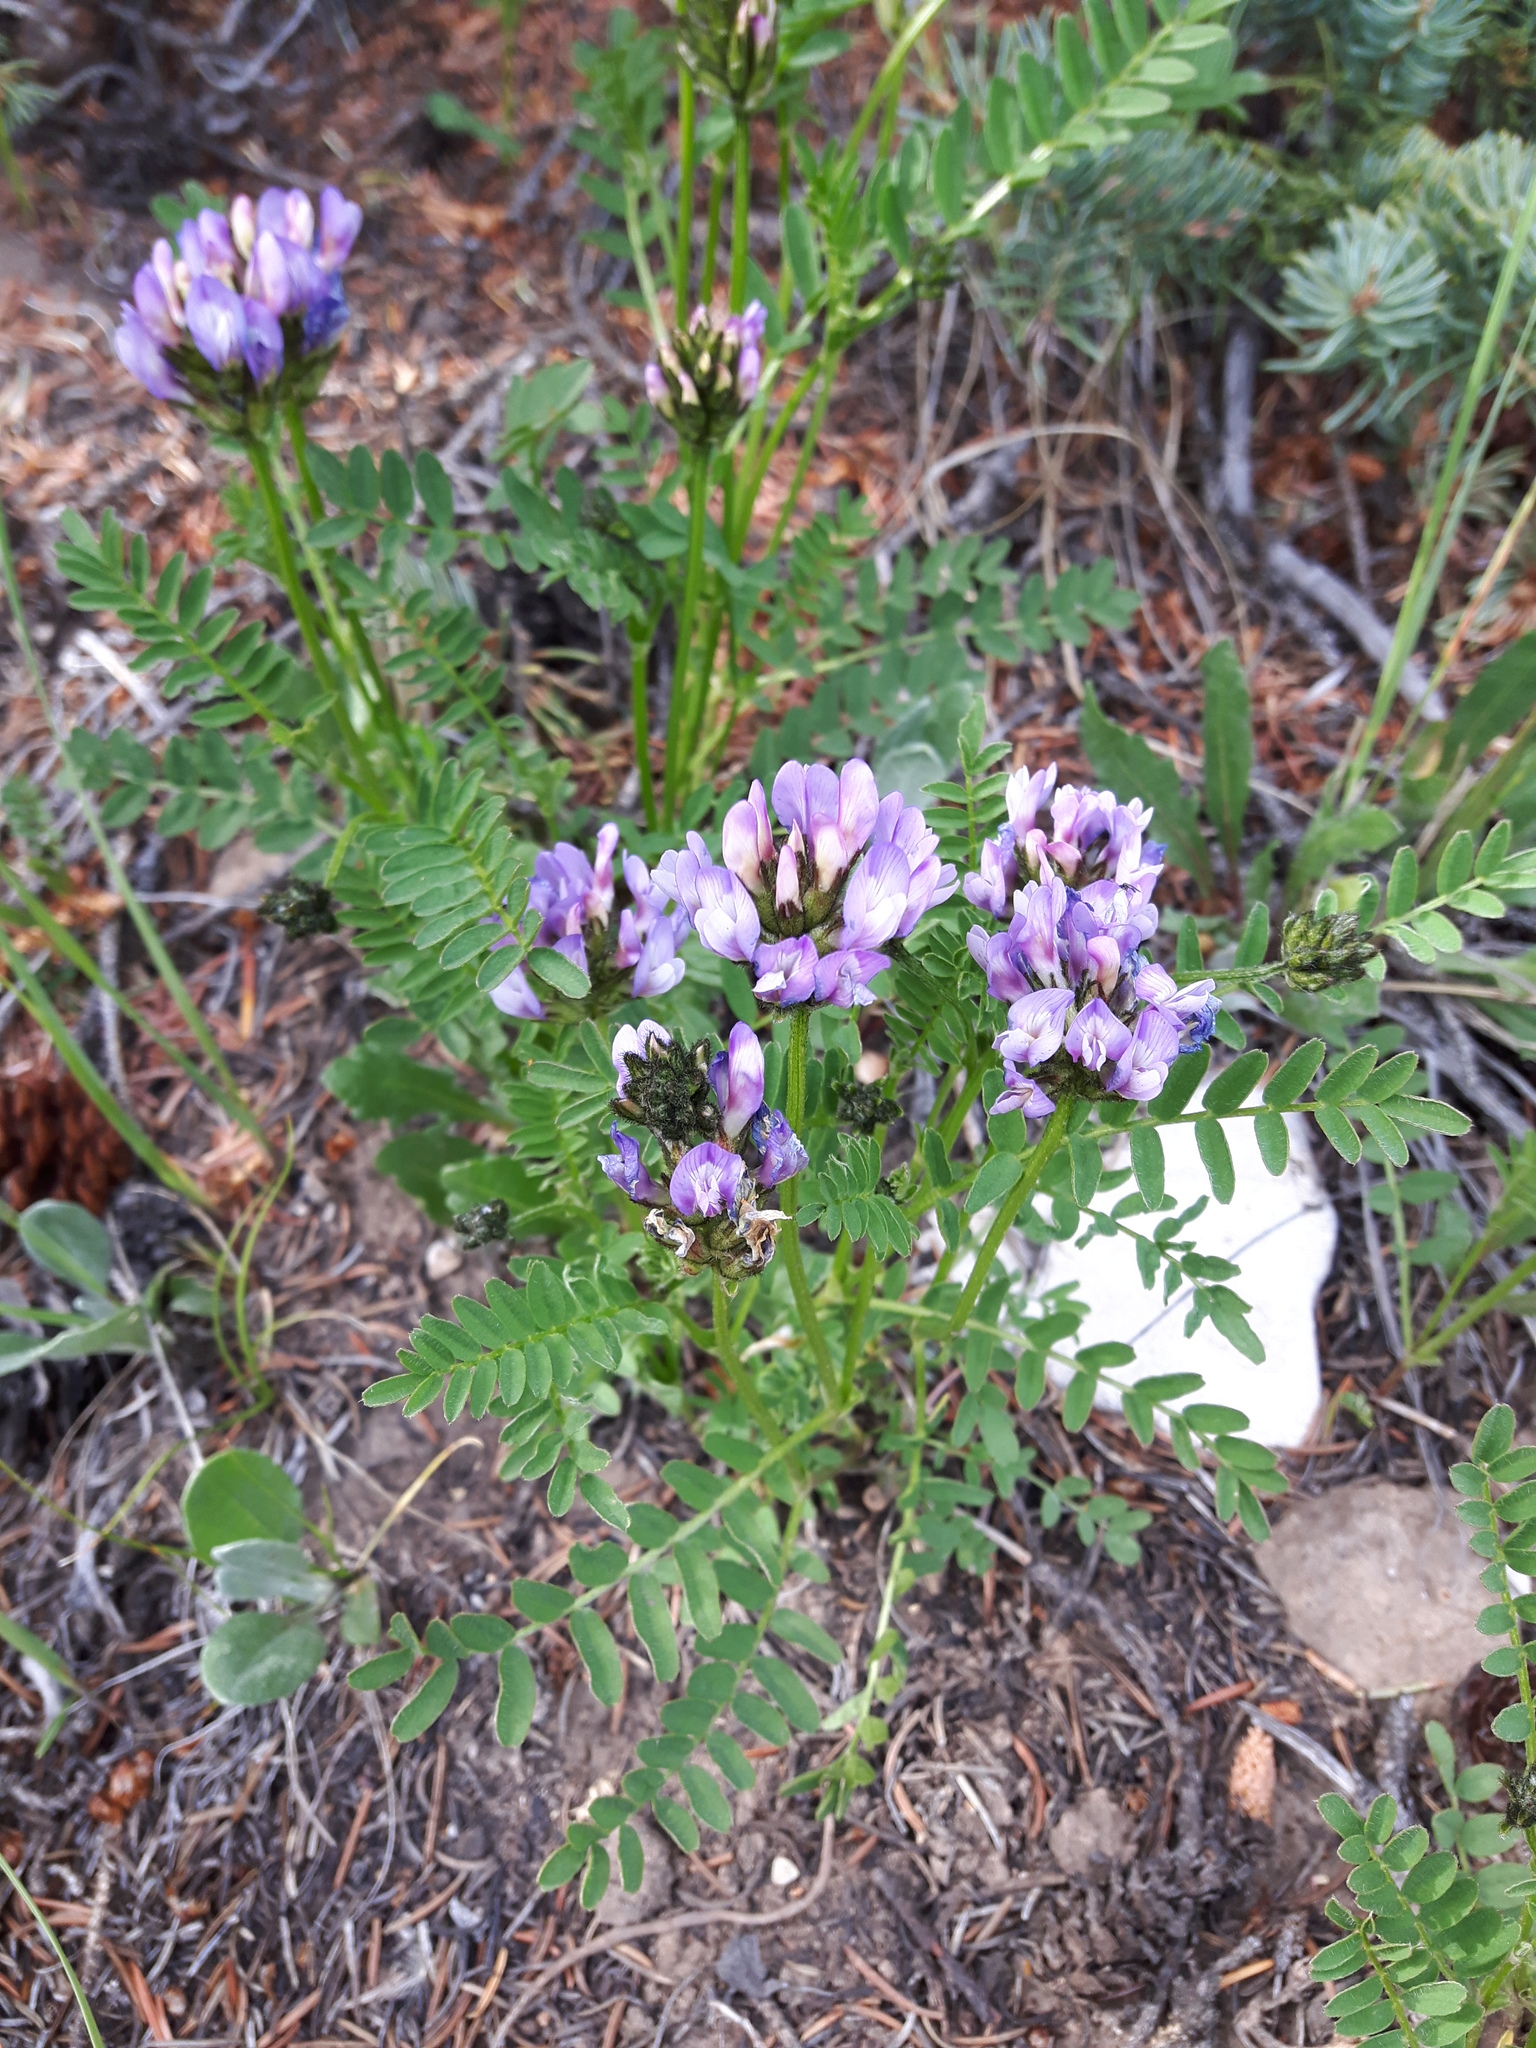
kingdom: Plantae
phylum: Tracheophyta
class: Magnoliopsida
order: Fabales
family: Fabaceae
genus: Astragalus
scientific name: Astragalus agrestis
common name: Field milk-vetch
